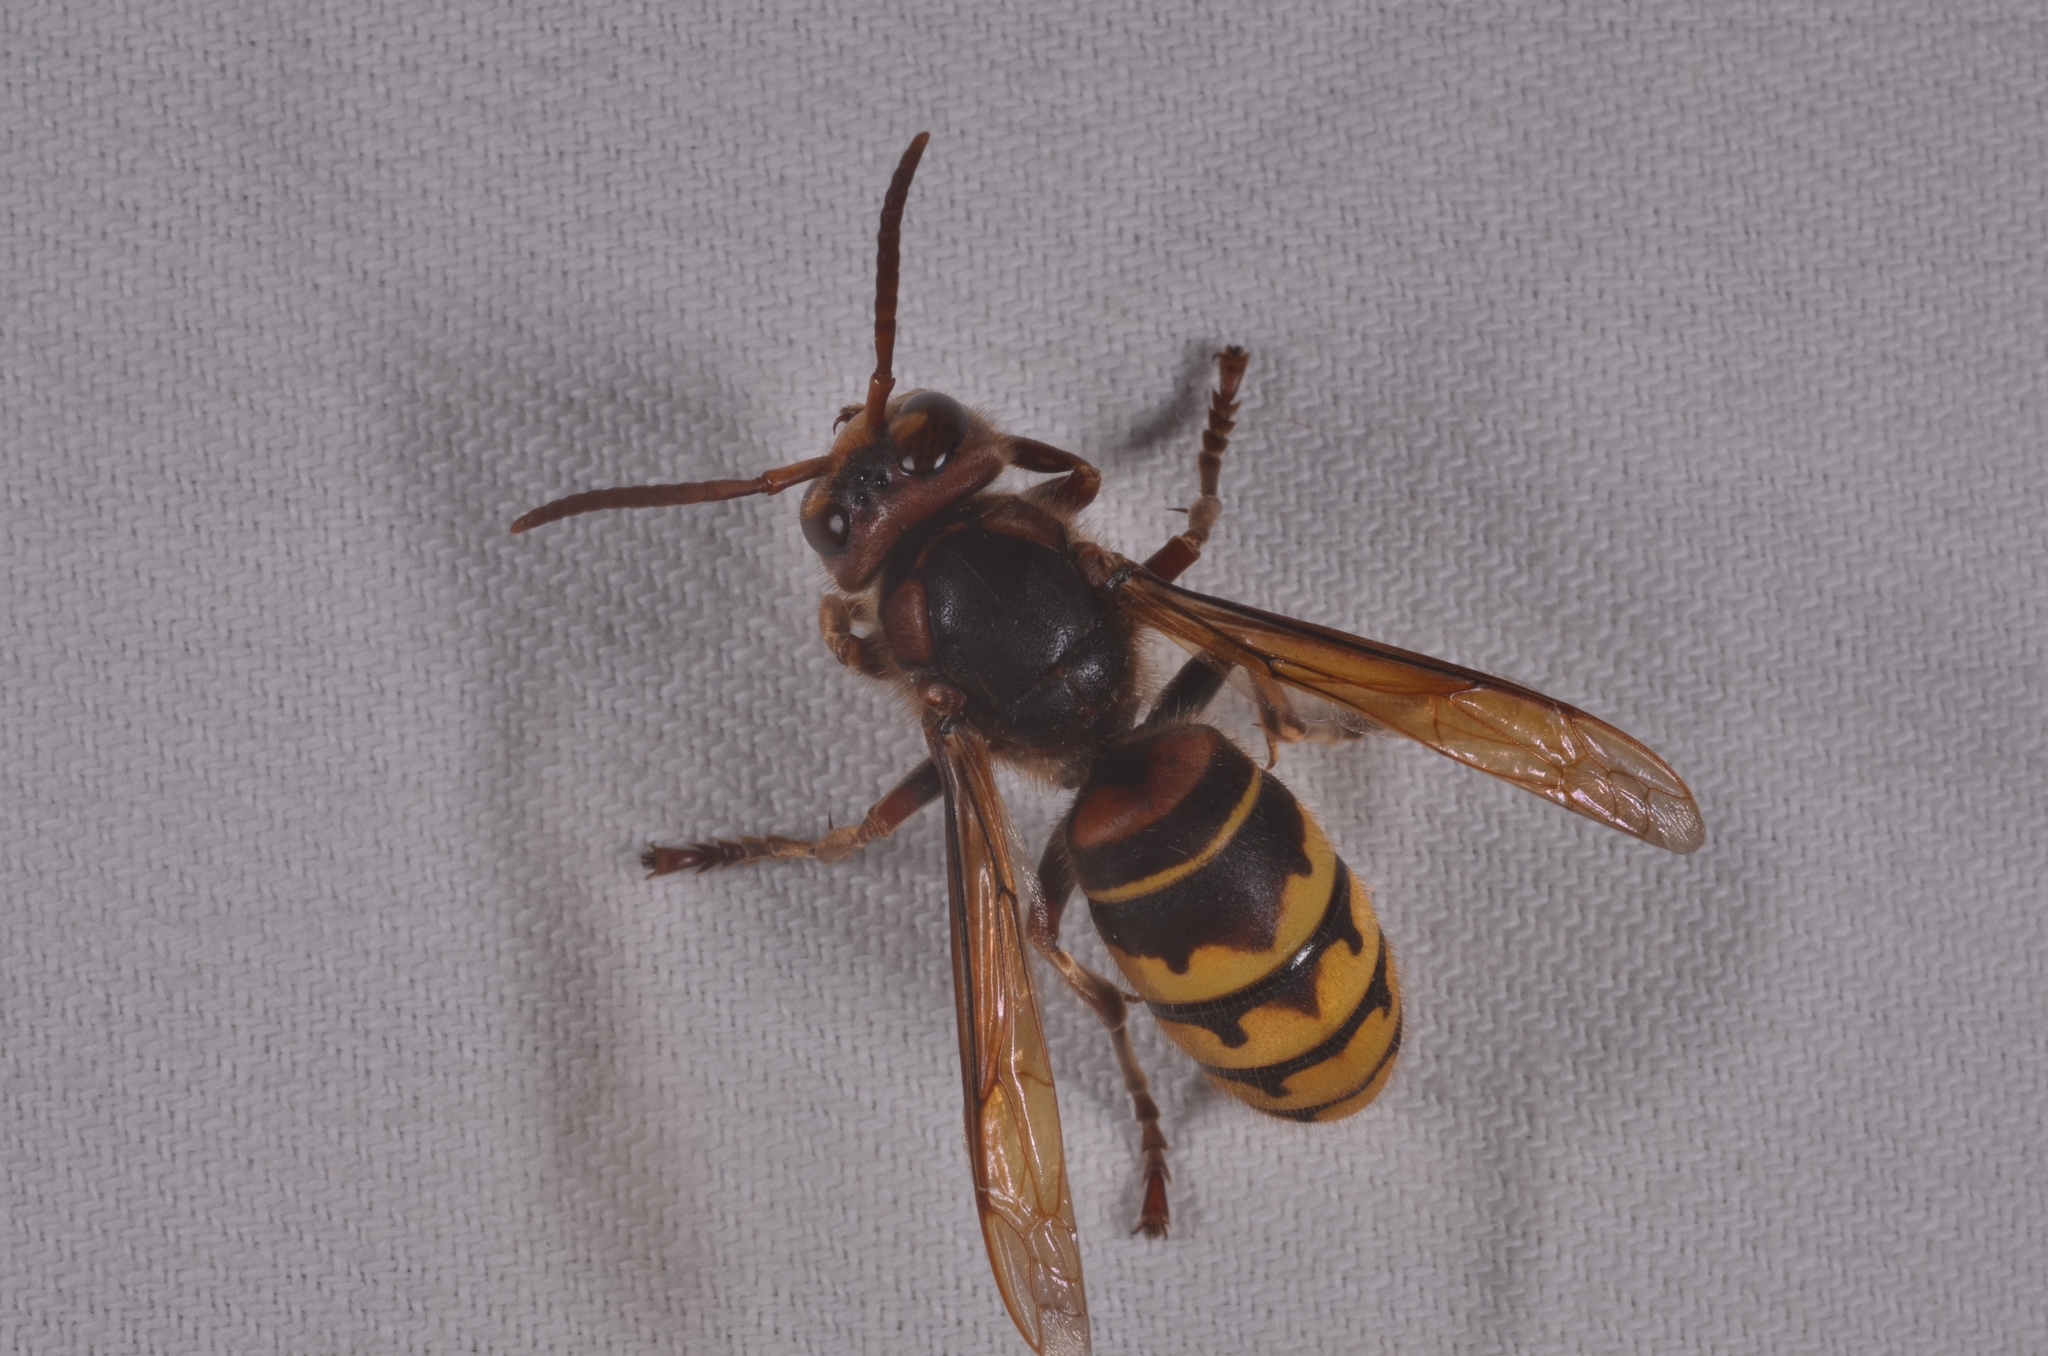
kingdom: Animalia
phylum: Arthropoda
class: Insecta
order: Hymenoptera
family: Vespidae
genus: Vespa
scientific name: Vespa crabro
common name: Hornet
